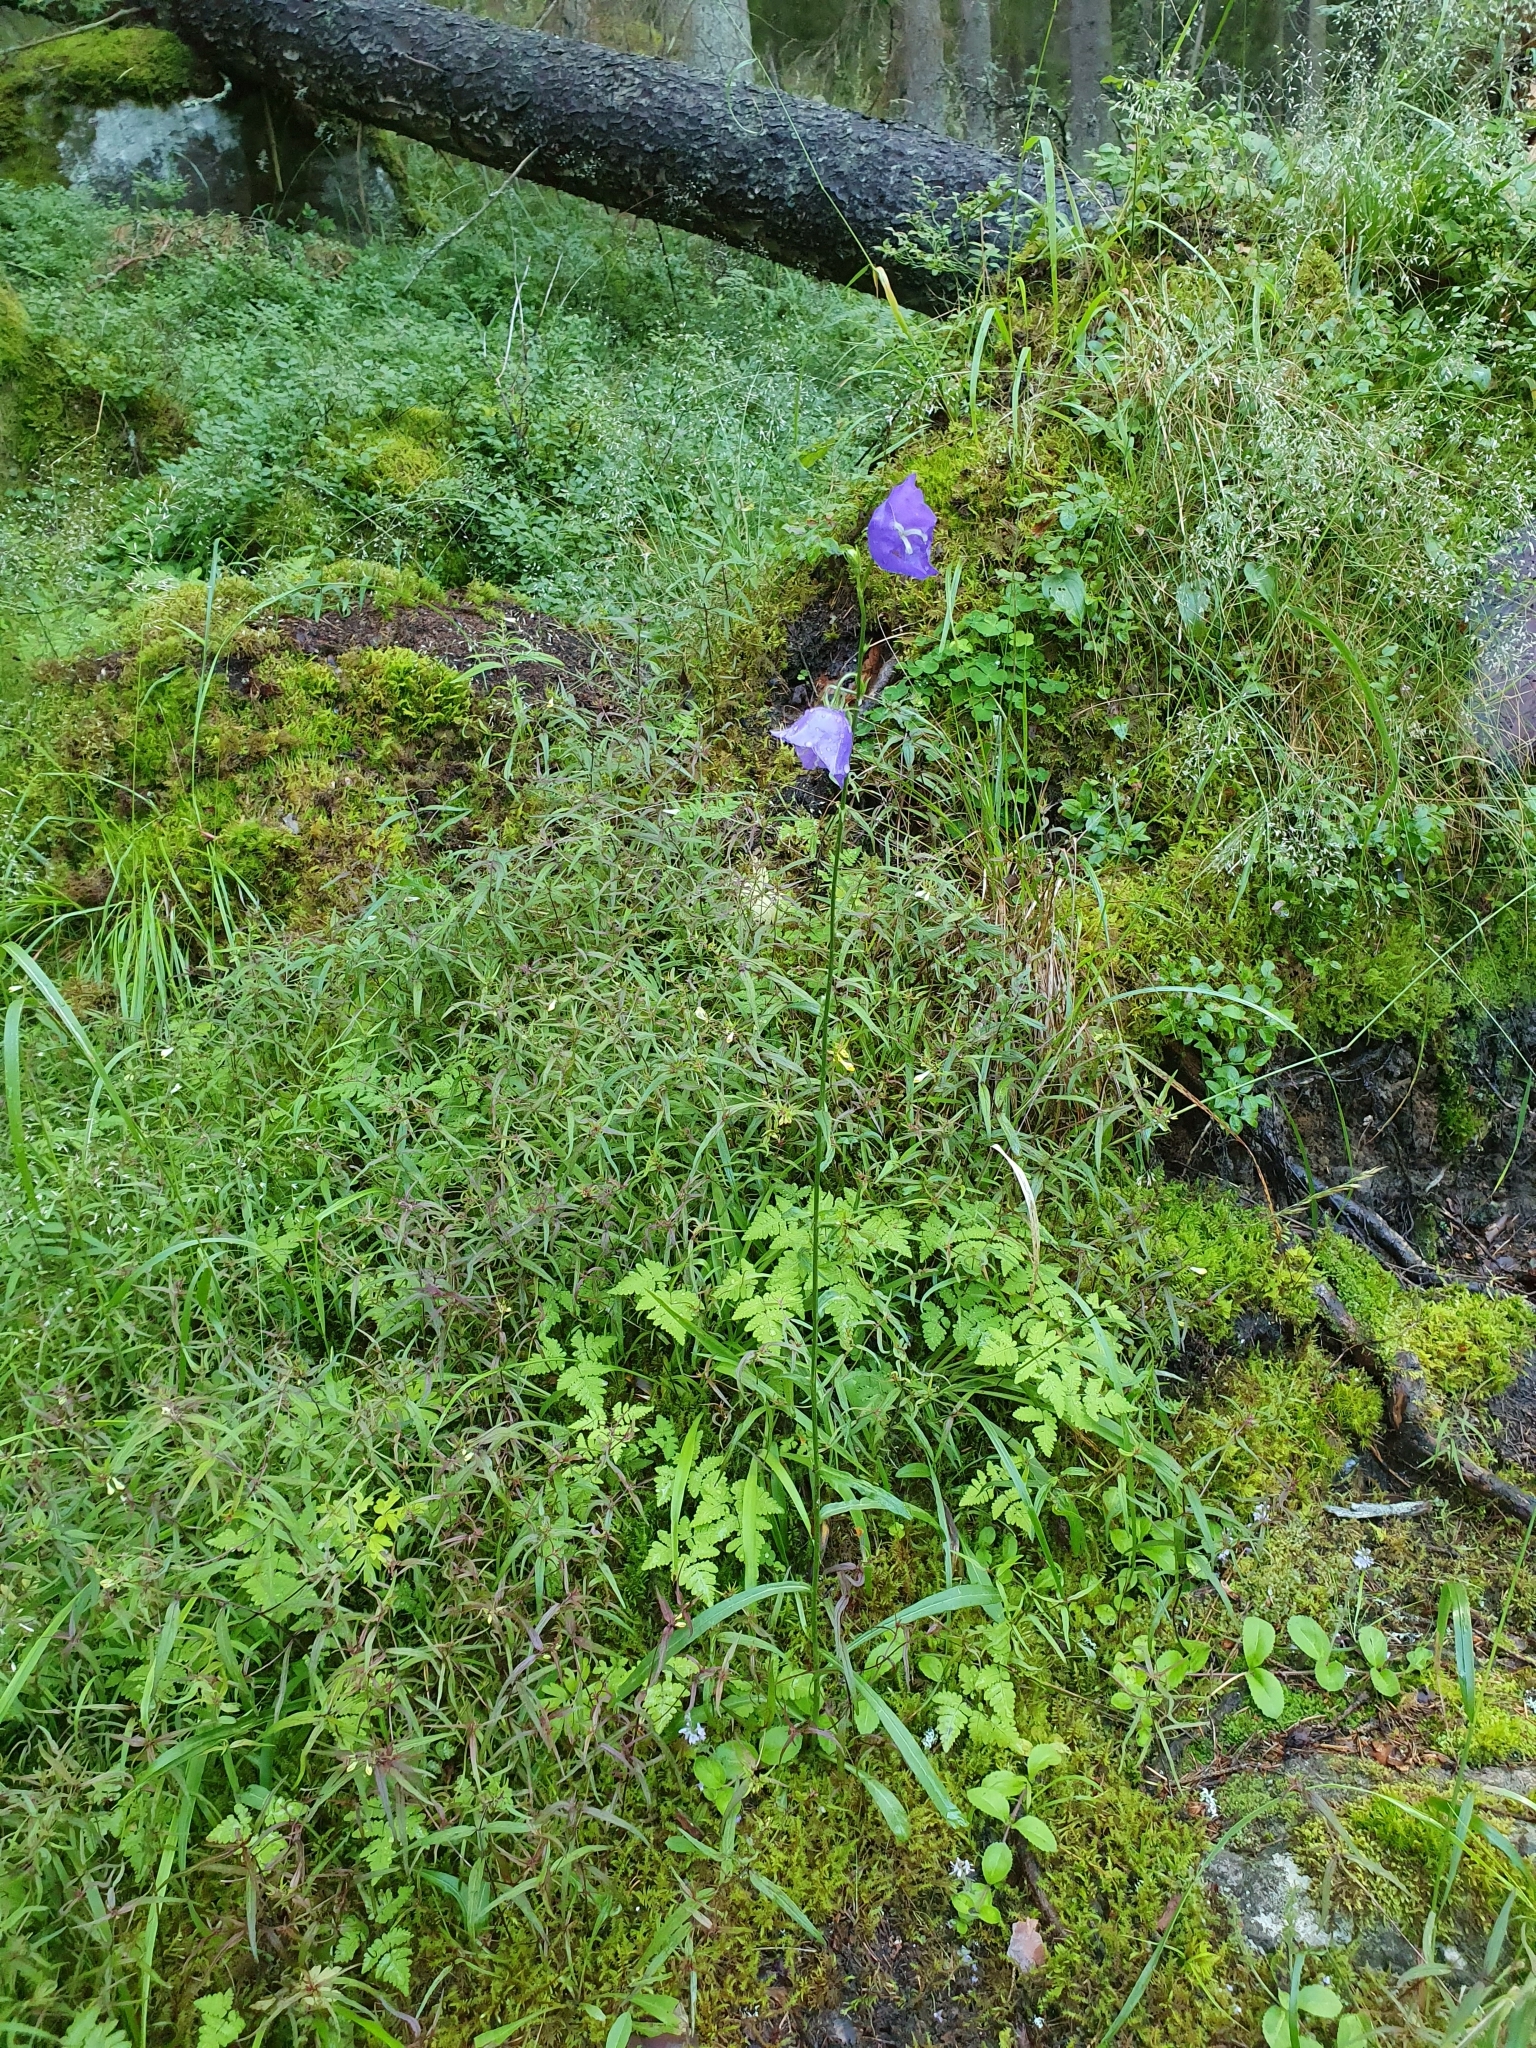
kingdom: Plantae
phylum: Tracheophyta
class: Magnoliopsida
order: Asterales
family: Campanulaceae
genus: Campanula
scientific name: Campanula persicifolia
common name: Peach-leaved bellflower
